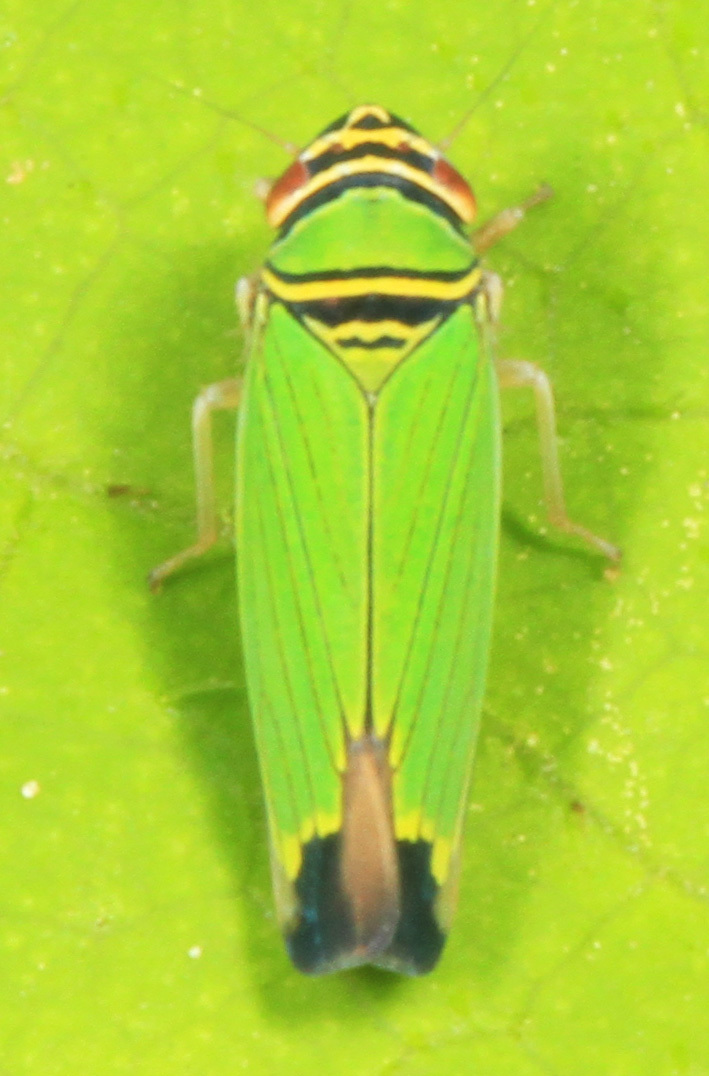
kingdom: Animalia
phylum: Arthropoda
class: Insecta
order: Hemiptera
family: Cicadellidae
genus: Tylozygus
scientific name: Tylozygus geometricus
